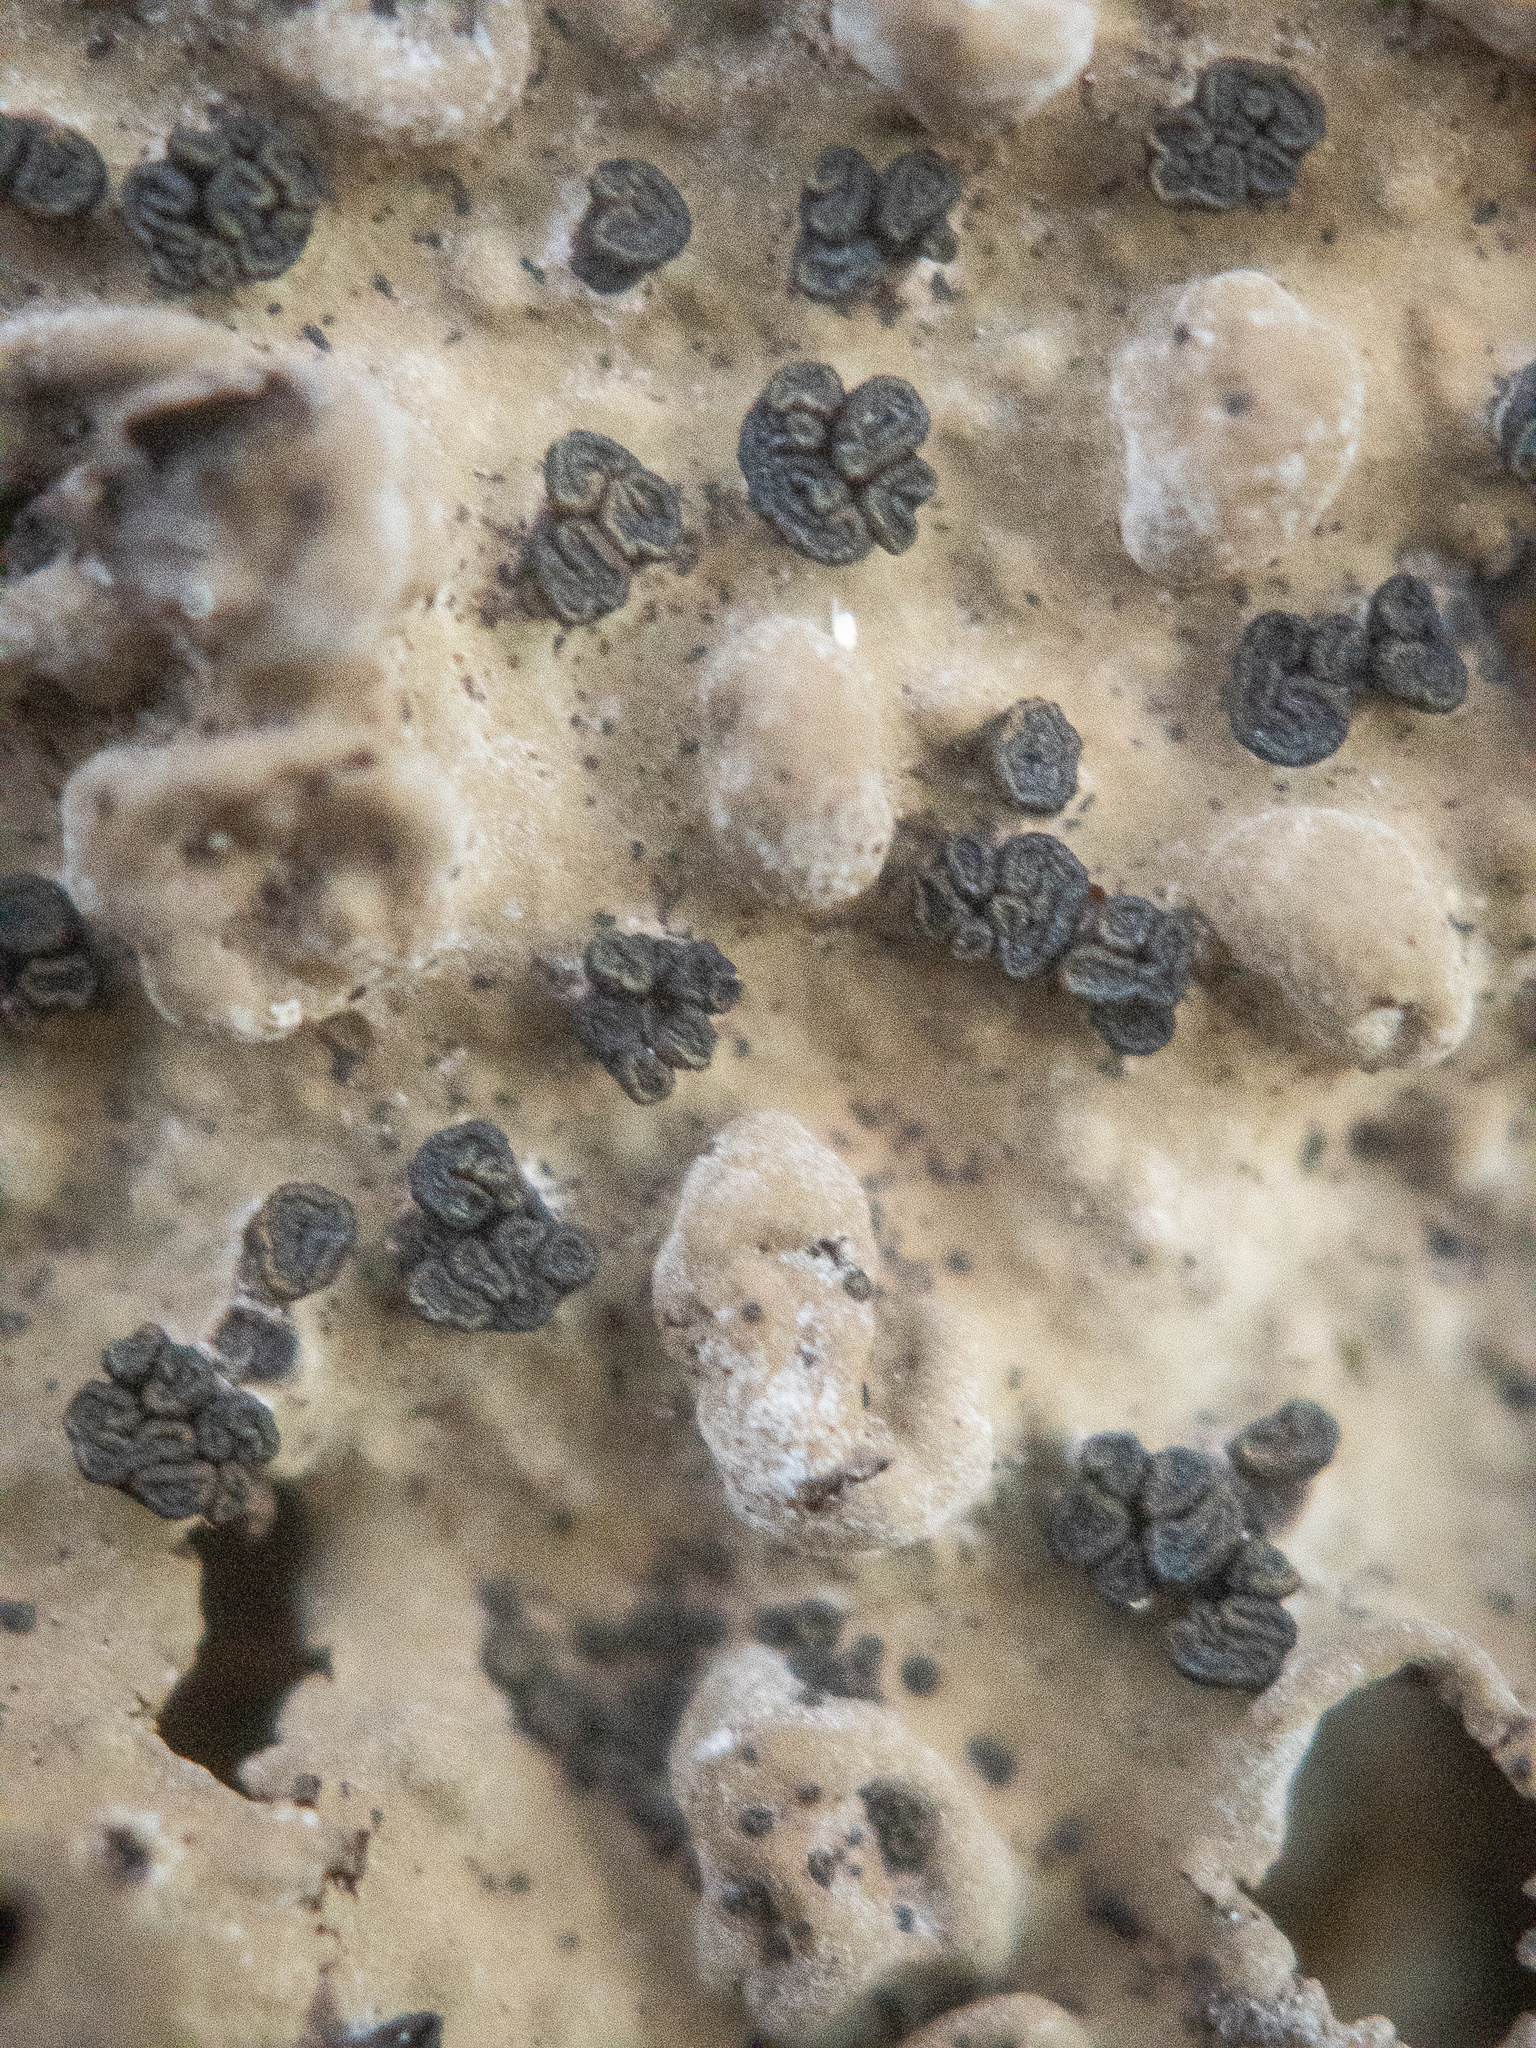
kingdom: Fungi
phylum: Ascomycota
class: Lecanoromycetes
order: Umbilicariales
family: Umbilicariaceae
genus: Lasallia
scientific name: Lasallia papulosa
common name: Common toadskin lichen
